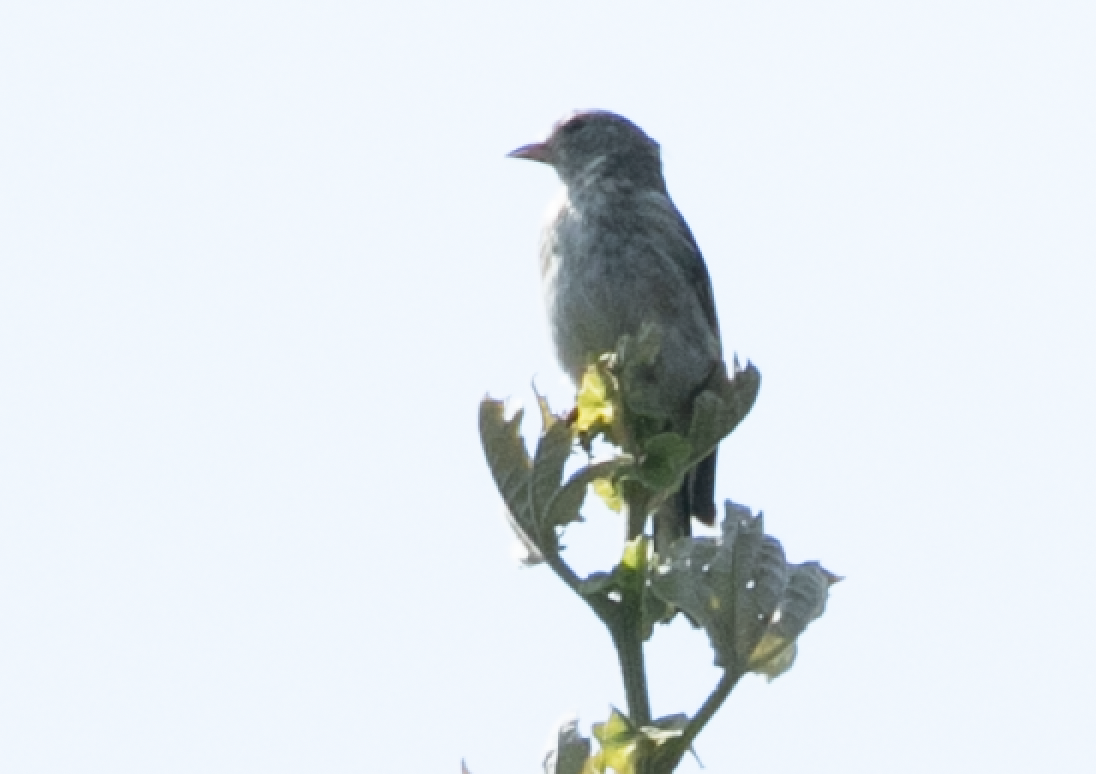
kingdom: Animalia
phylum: Chordata
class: Aves
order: Passeriformes
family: Fringillidae
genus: Carduelis
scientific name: Carduelis carduelis
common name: European goldfinch
